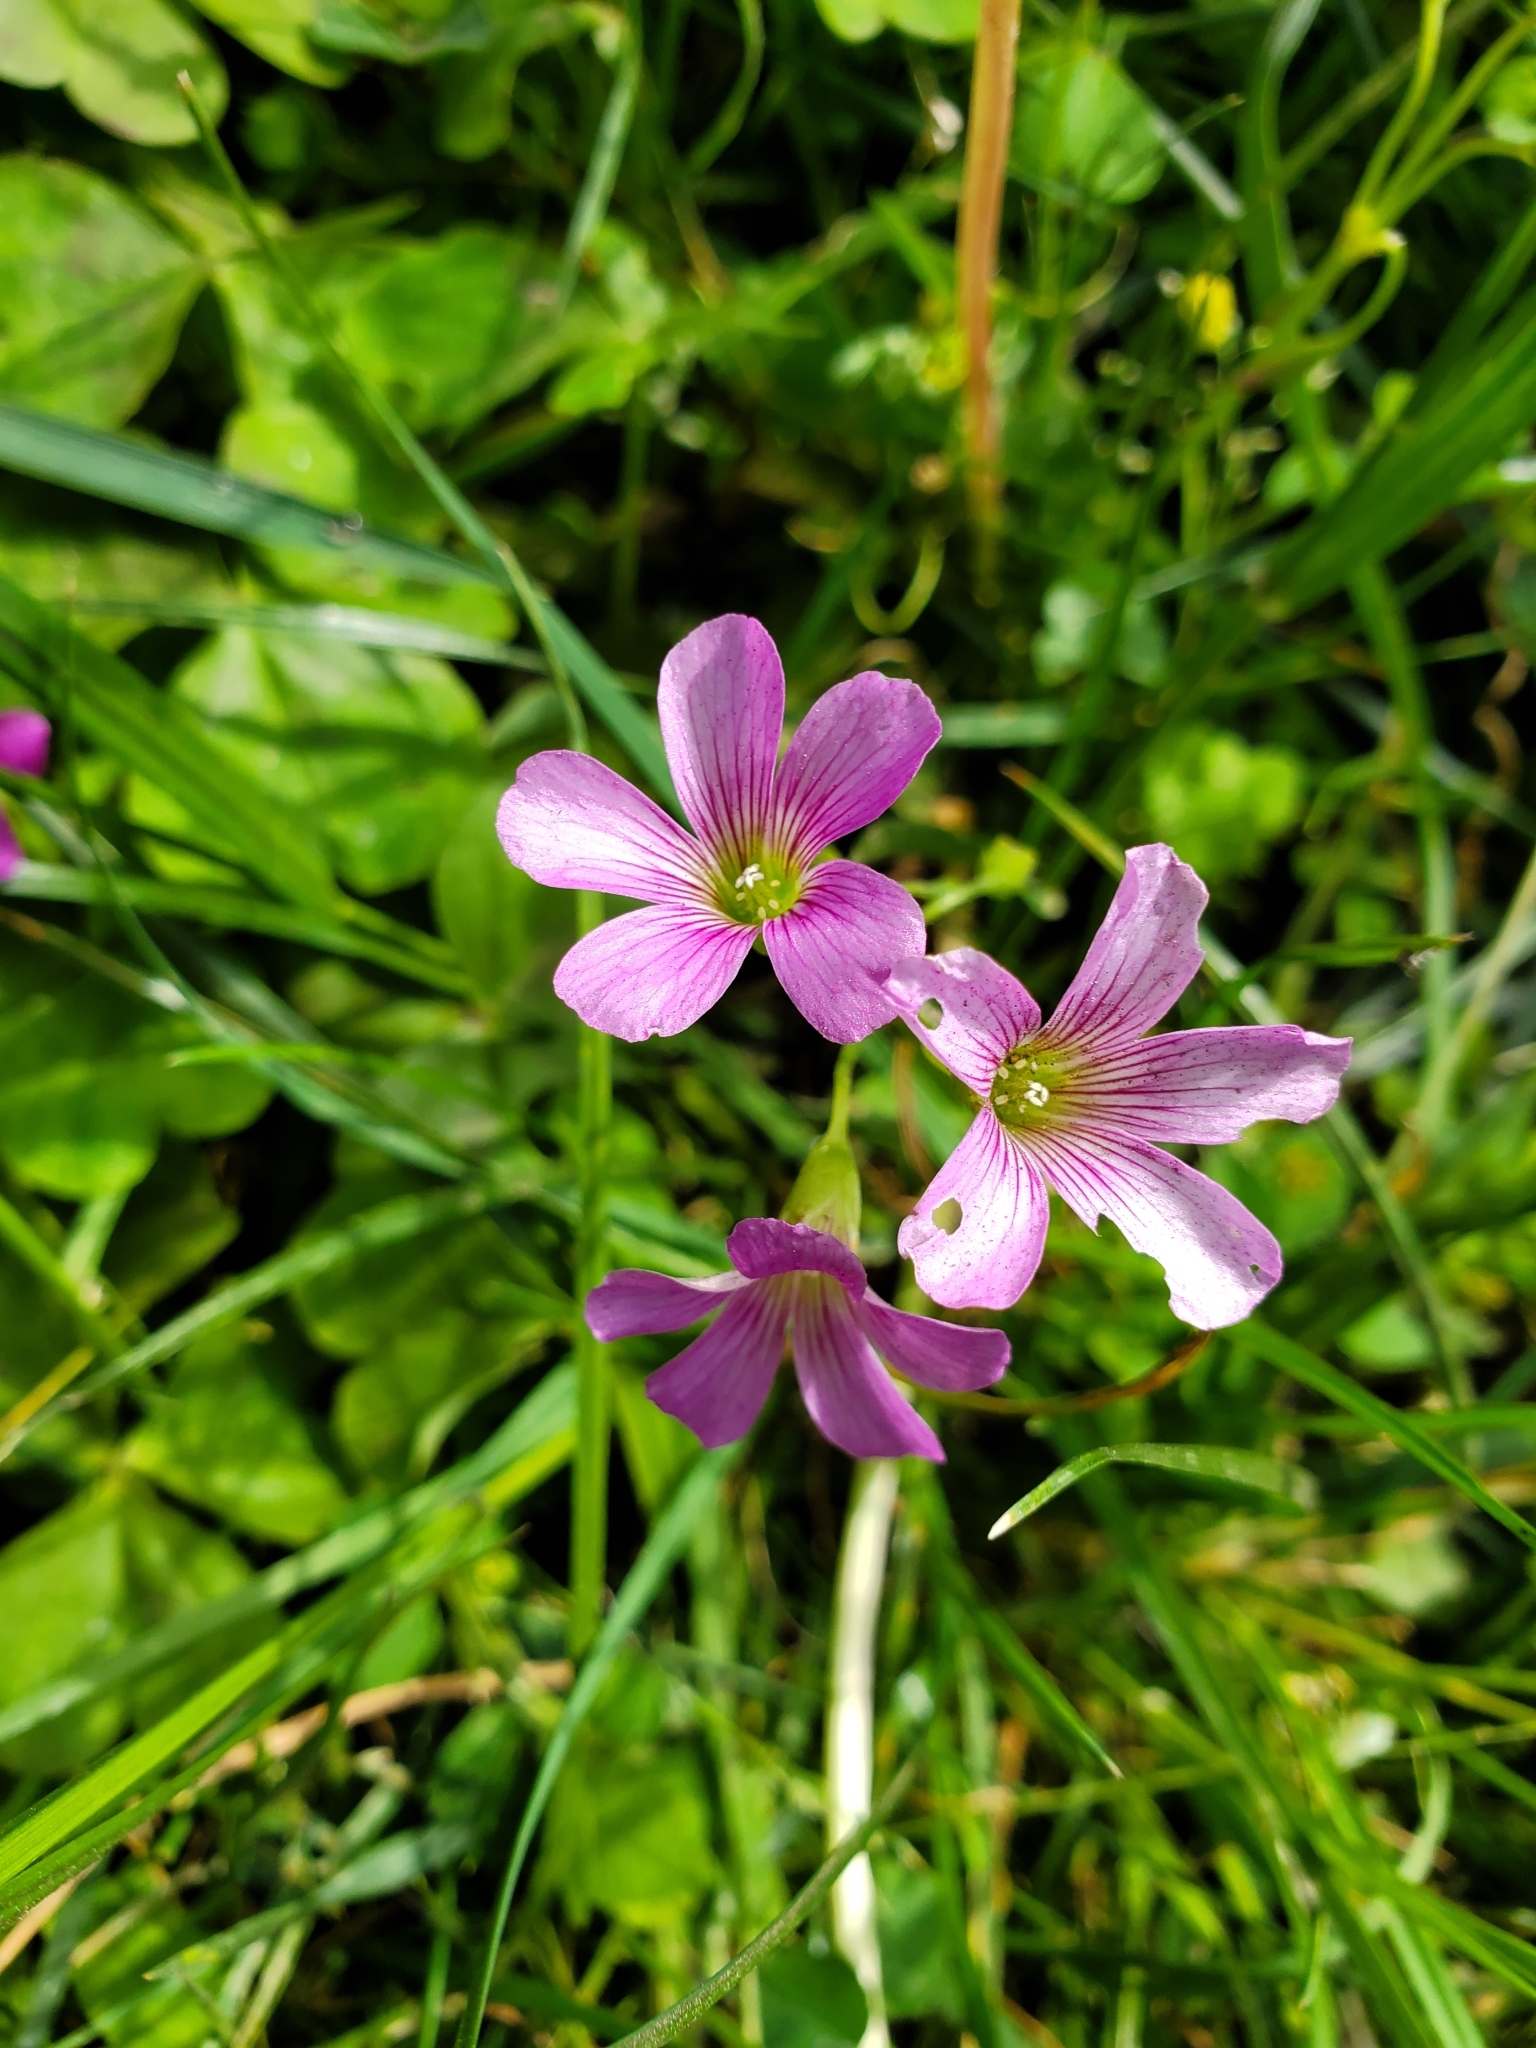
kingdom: Plantae
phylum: Tracheophyta
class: Magnoliopsida
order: Oxalidales
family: Oxalidaceae
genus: Oxalis
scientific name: Oxalis debilis
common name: Large-flowered pink-sorrel
